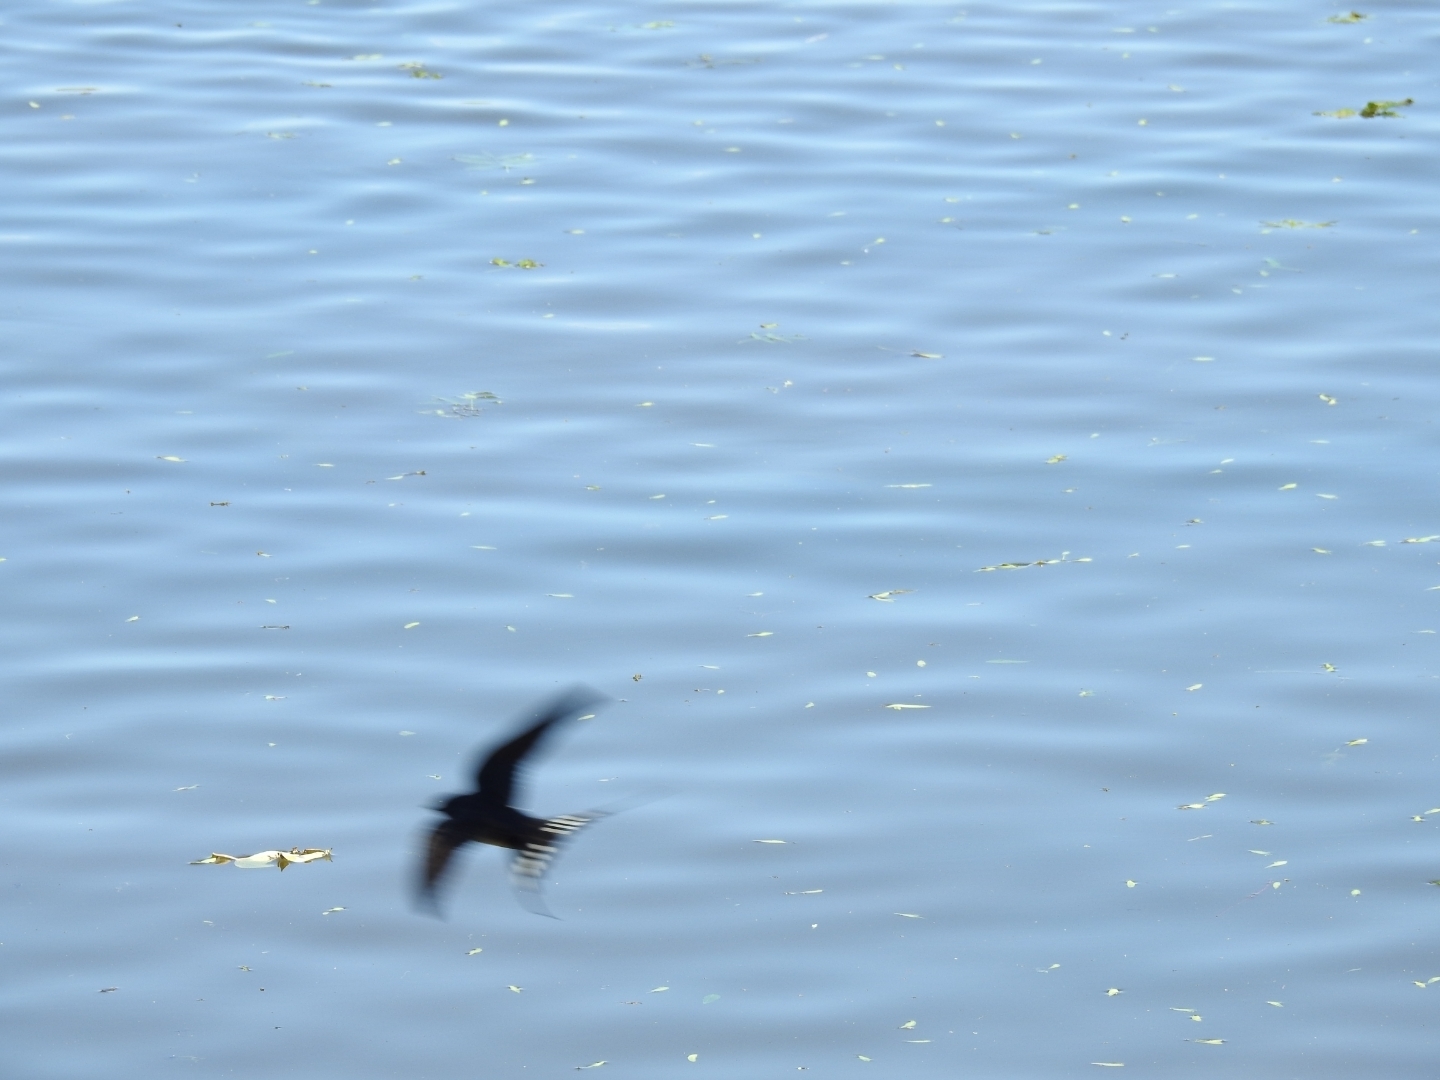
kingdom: Animalia
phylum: Chordata
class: Aves
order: Passeriformes
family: Hirundinidae
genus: Hirundo
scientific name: Hirundo rustica
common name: Barn swallow
